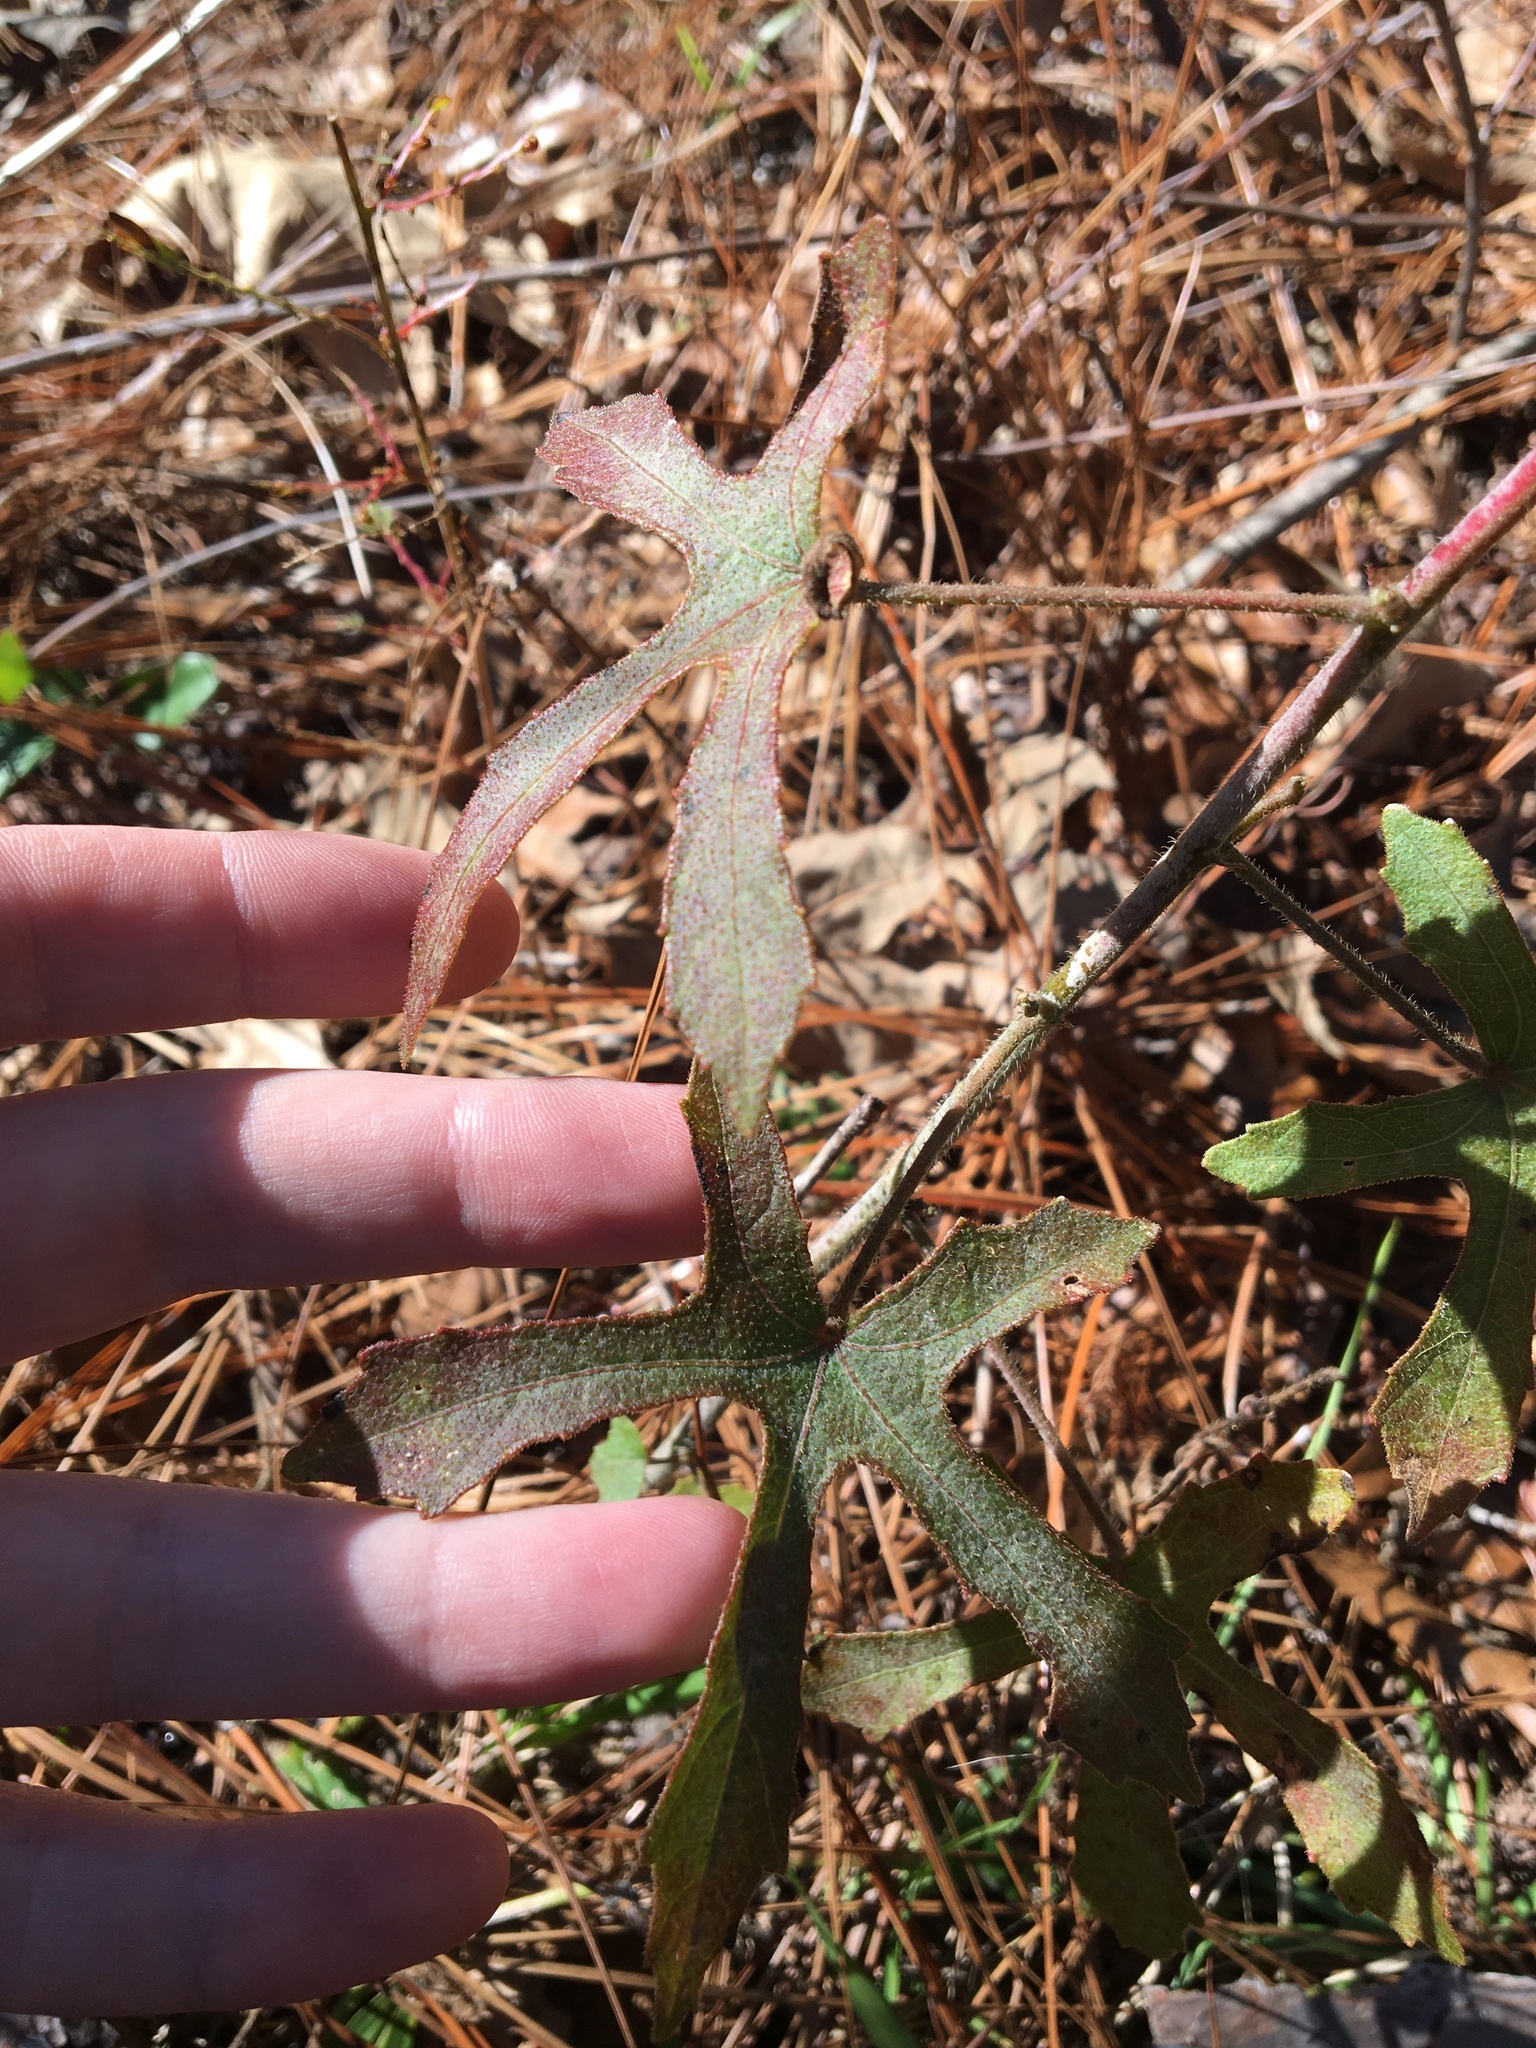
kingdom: Plantae
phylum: Tracheophyta
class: Magnoliopsida
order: Malvales
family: Malvaceae
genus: Hibiscus
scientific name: Hibiscus aculeatus
